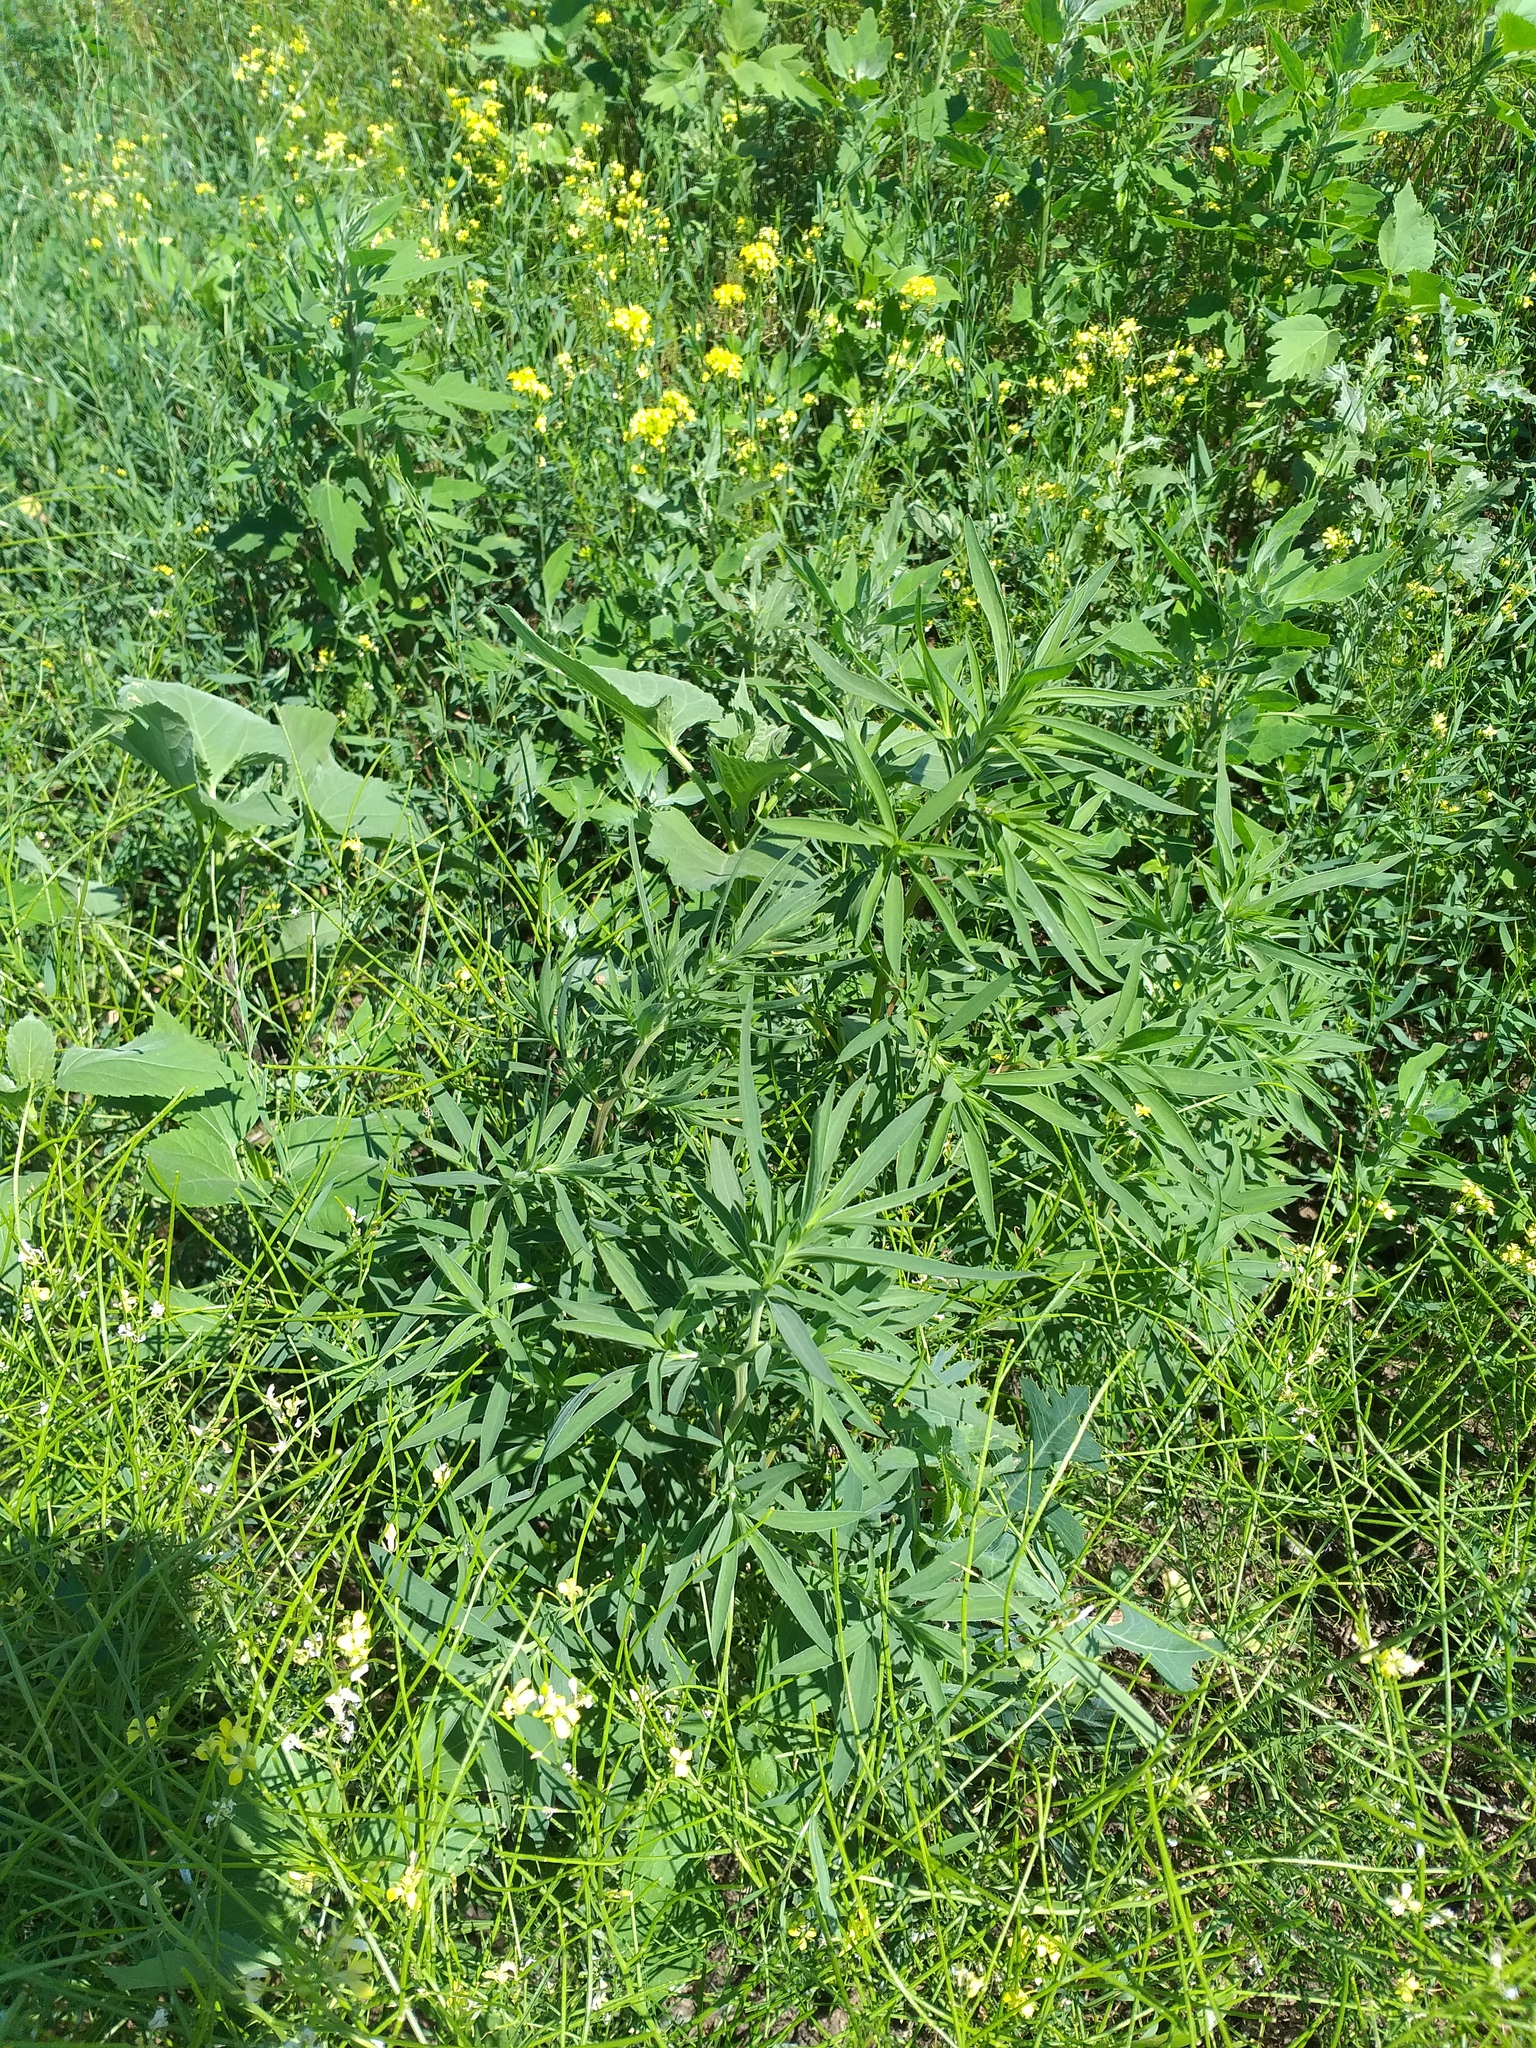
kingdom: Plantae
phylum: Tracheophyta
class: Magnoliopsida
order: Caryophyllales
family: Amaranthaceae
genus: Bassia
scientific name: Bassia scoparia
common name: Belvedere
